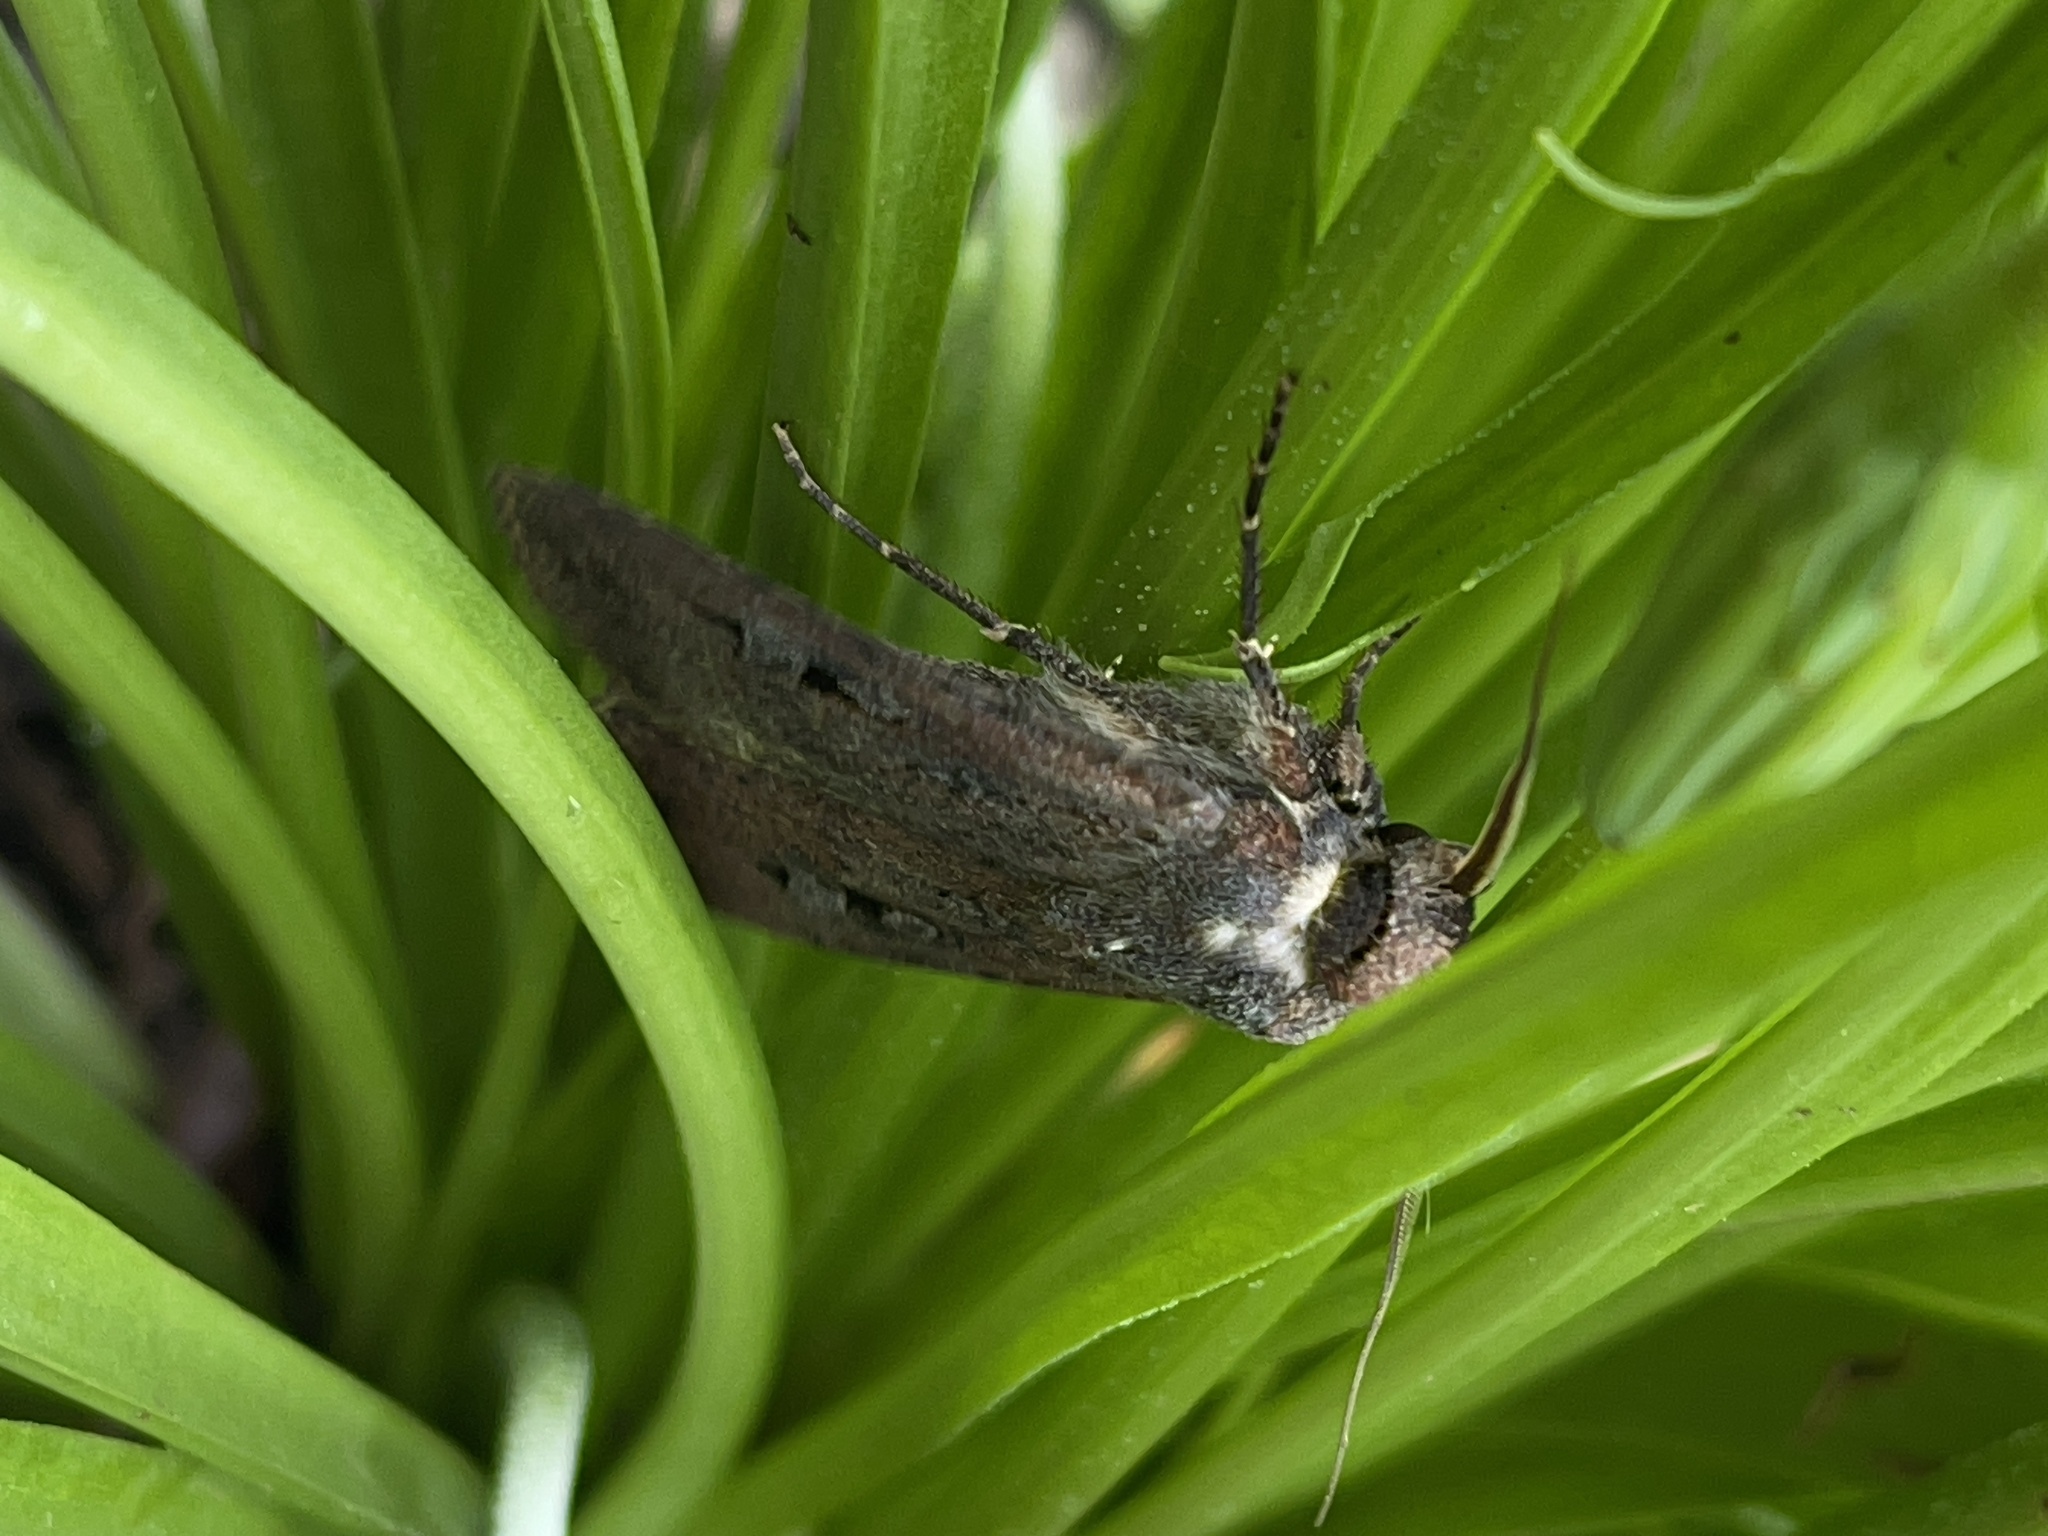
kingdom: Animalia
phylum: Arthropoda
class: Insecta
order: Lepidoptera
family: Noctuidae
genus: Agrotis
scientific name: Agrotis infusa
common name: Bogong moth
